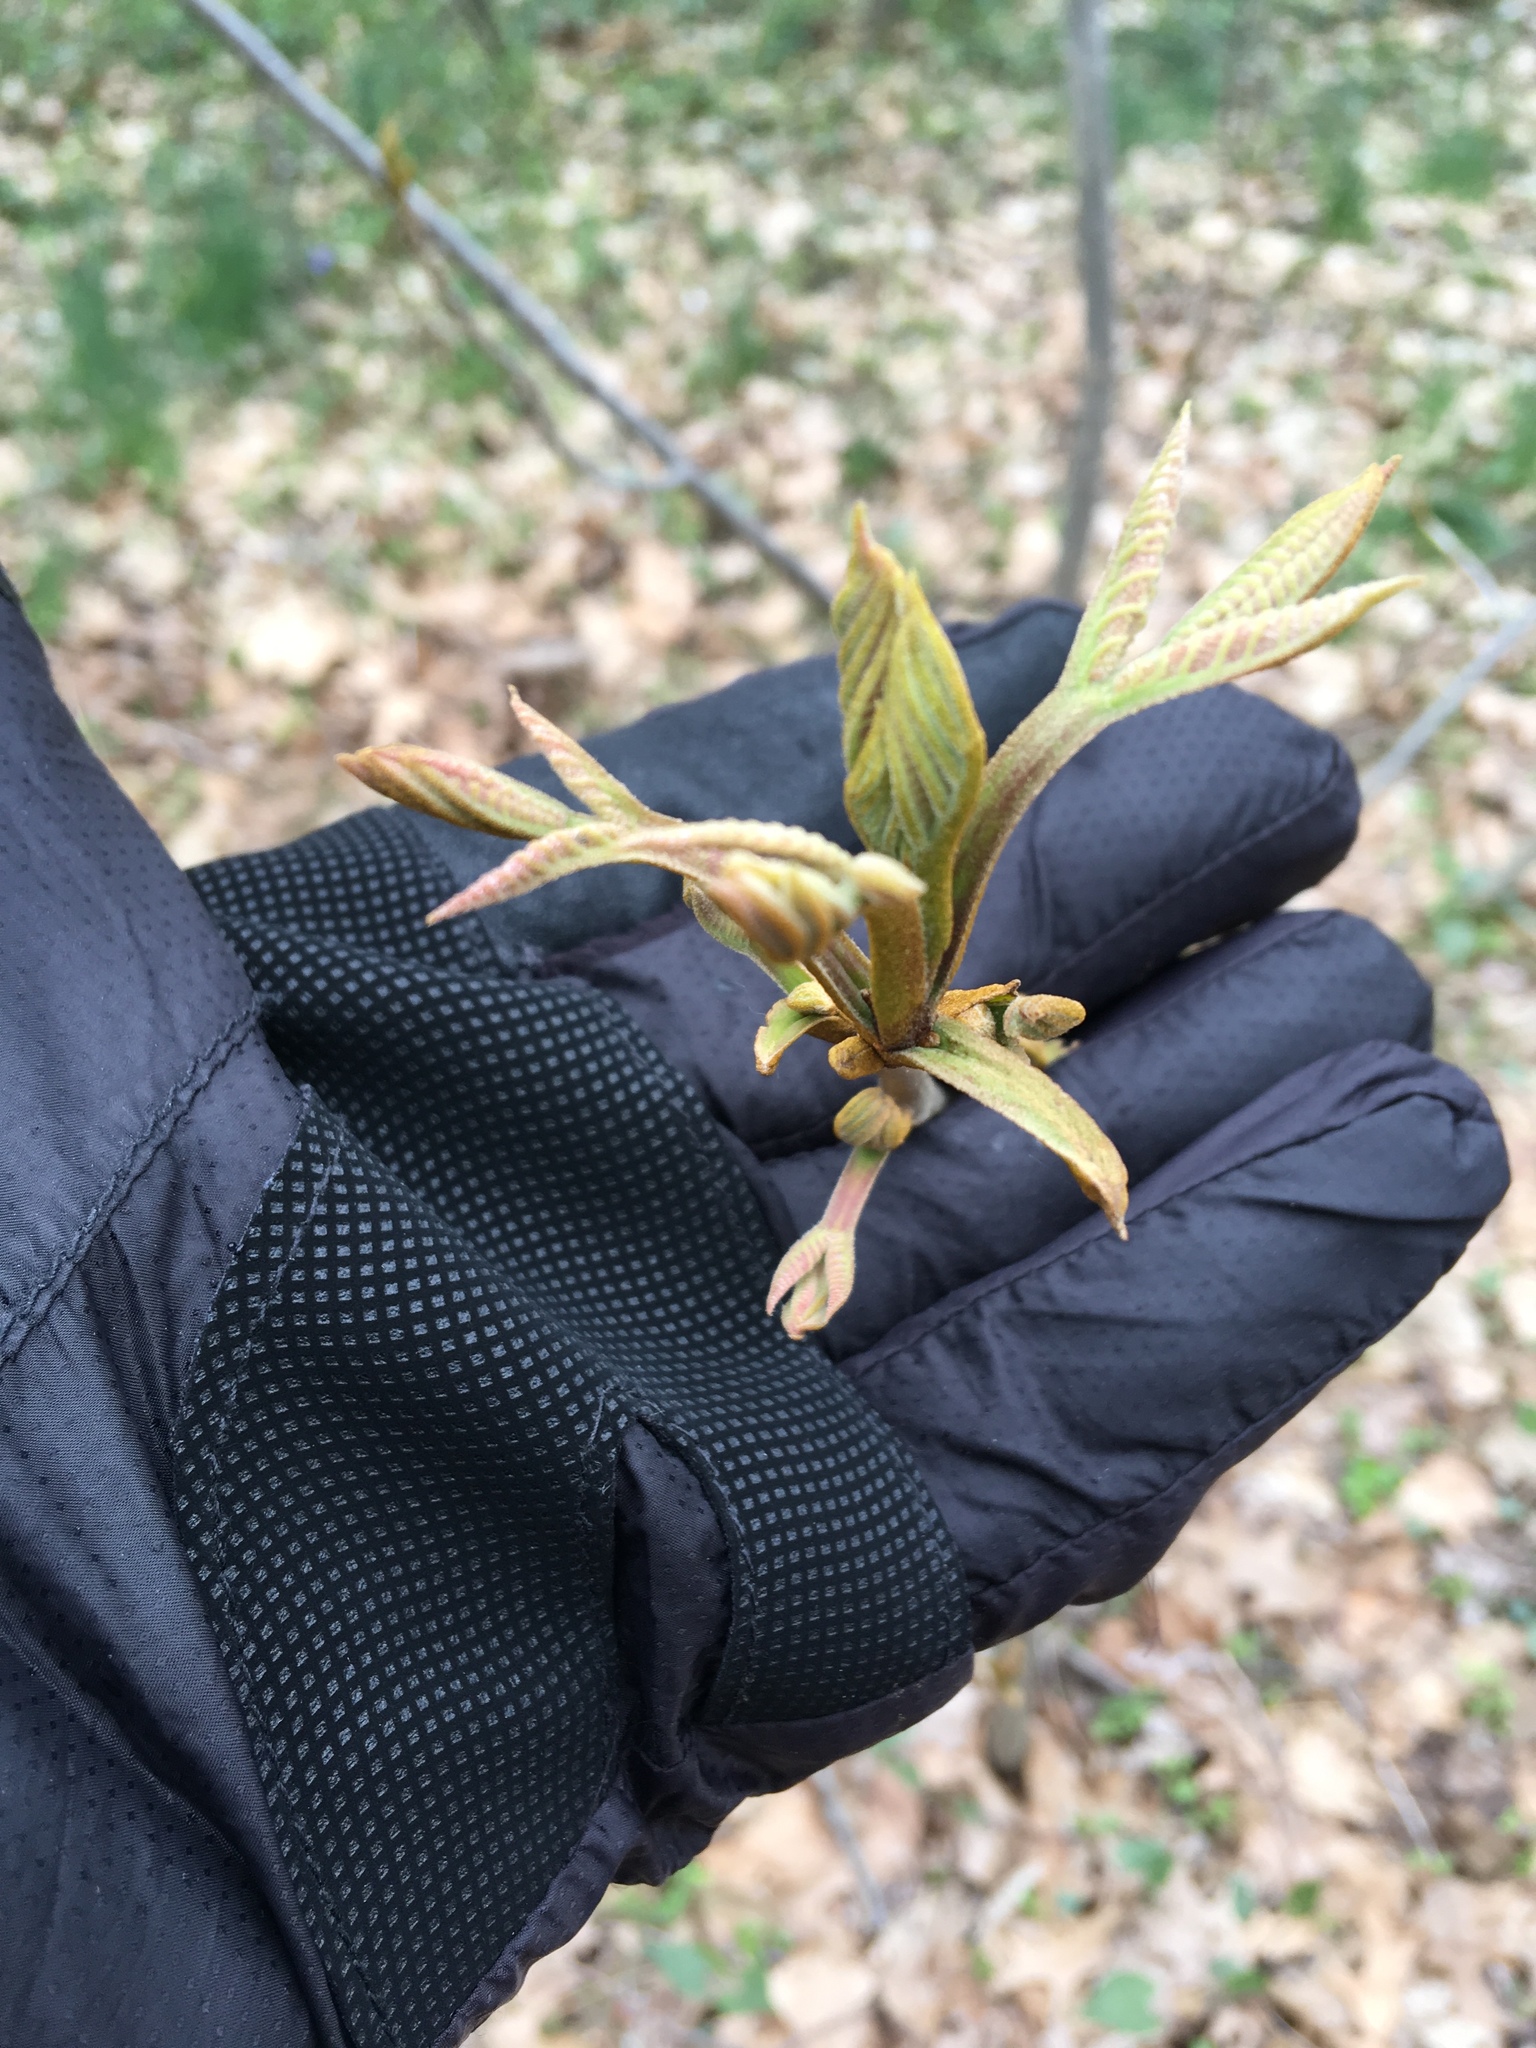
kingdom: Plantae
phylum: Tracheophyta
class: Magnoliopsida
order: Fagales
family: Juglandaceae
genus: Carya
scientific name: Carya cordiformis
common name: Bitternut hickory
